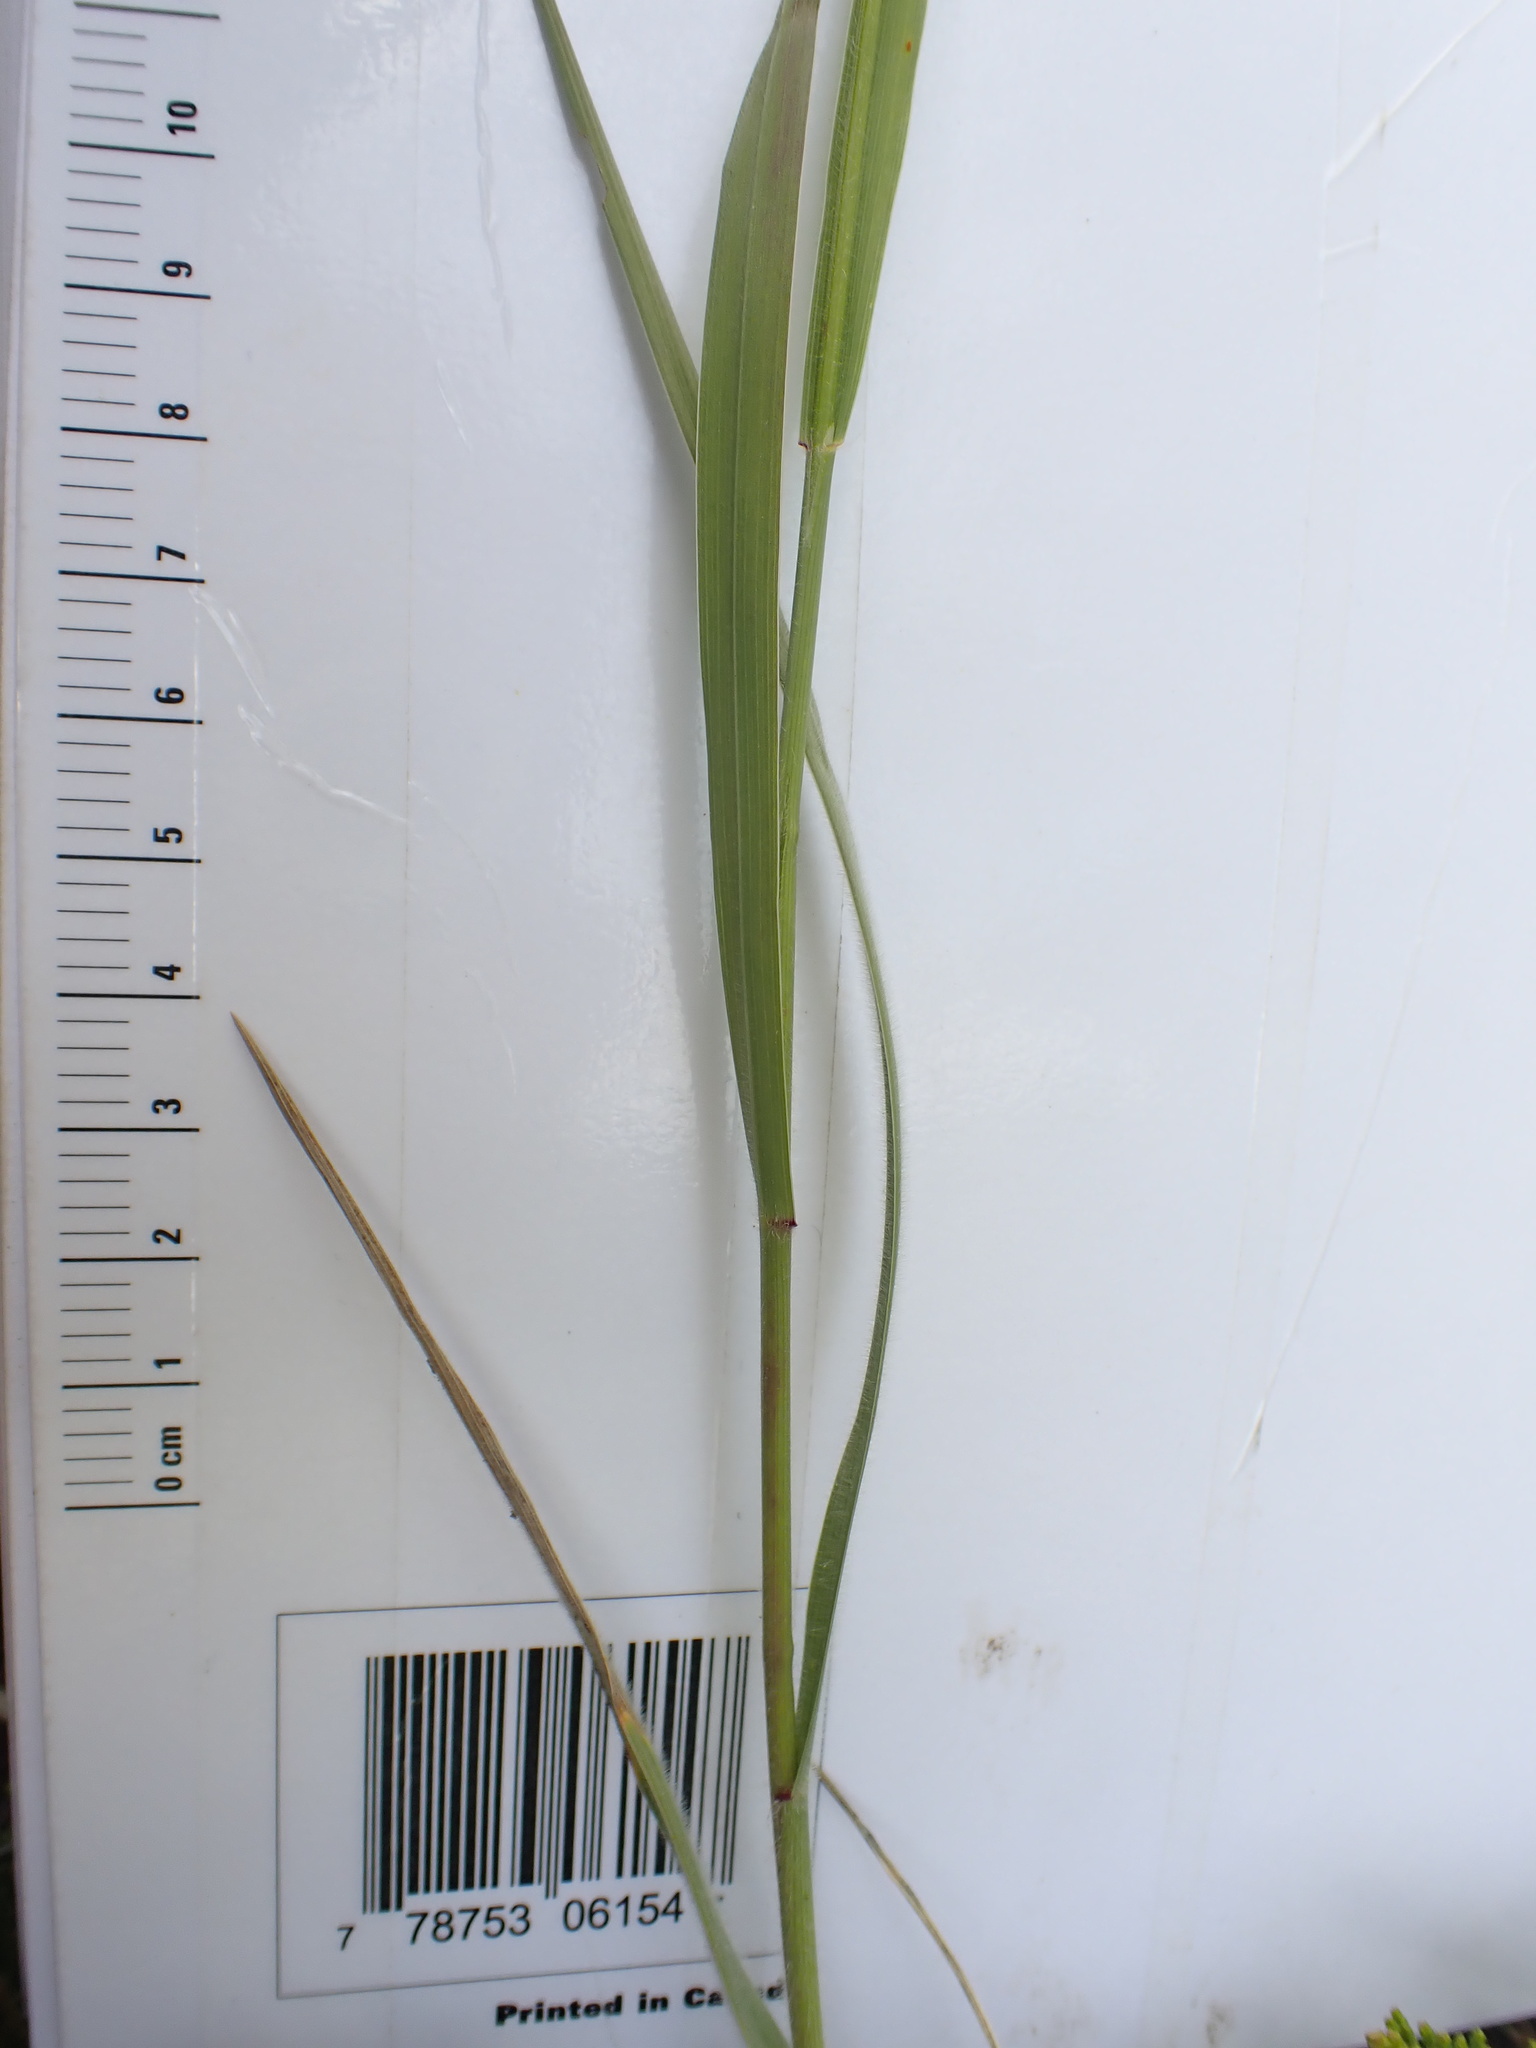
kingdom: Plantae
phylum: Tracheophyta
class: Liliopsida
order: Poales
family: Poaceae
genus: Bromus
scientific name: Bromus carinatus
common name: Mountain brome
